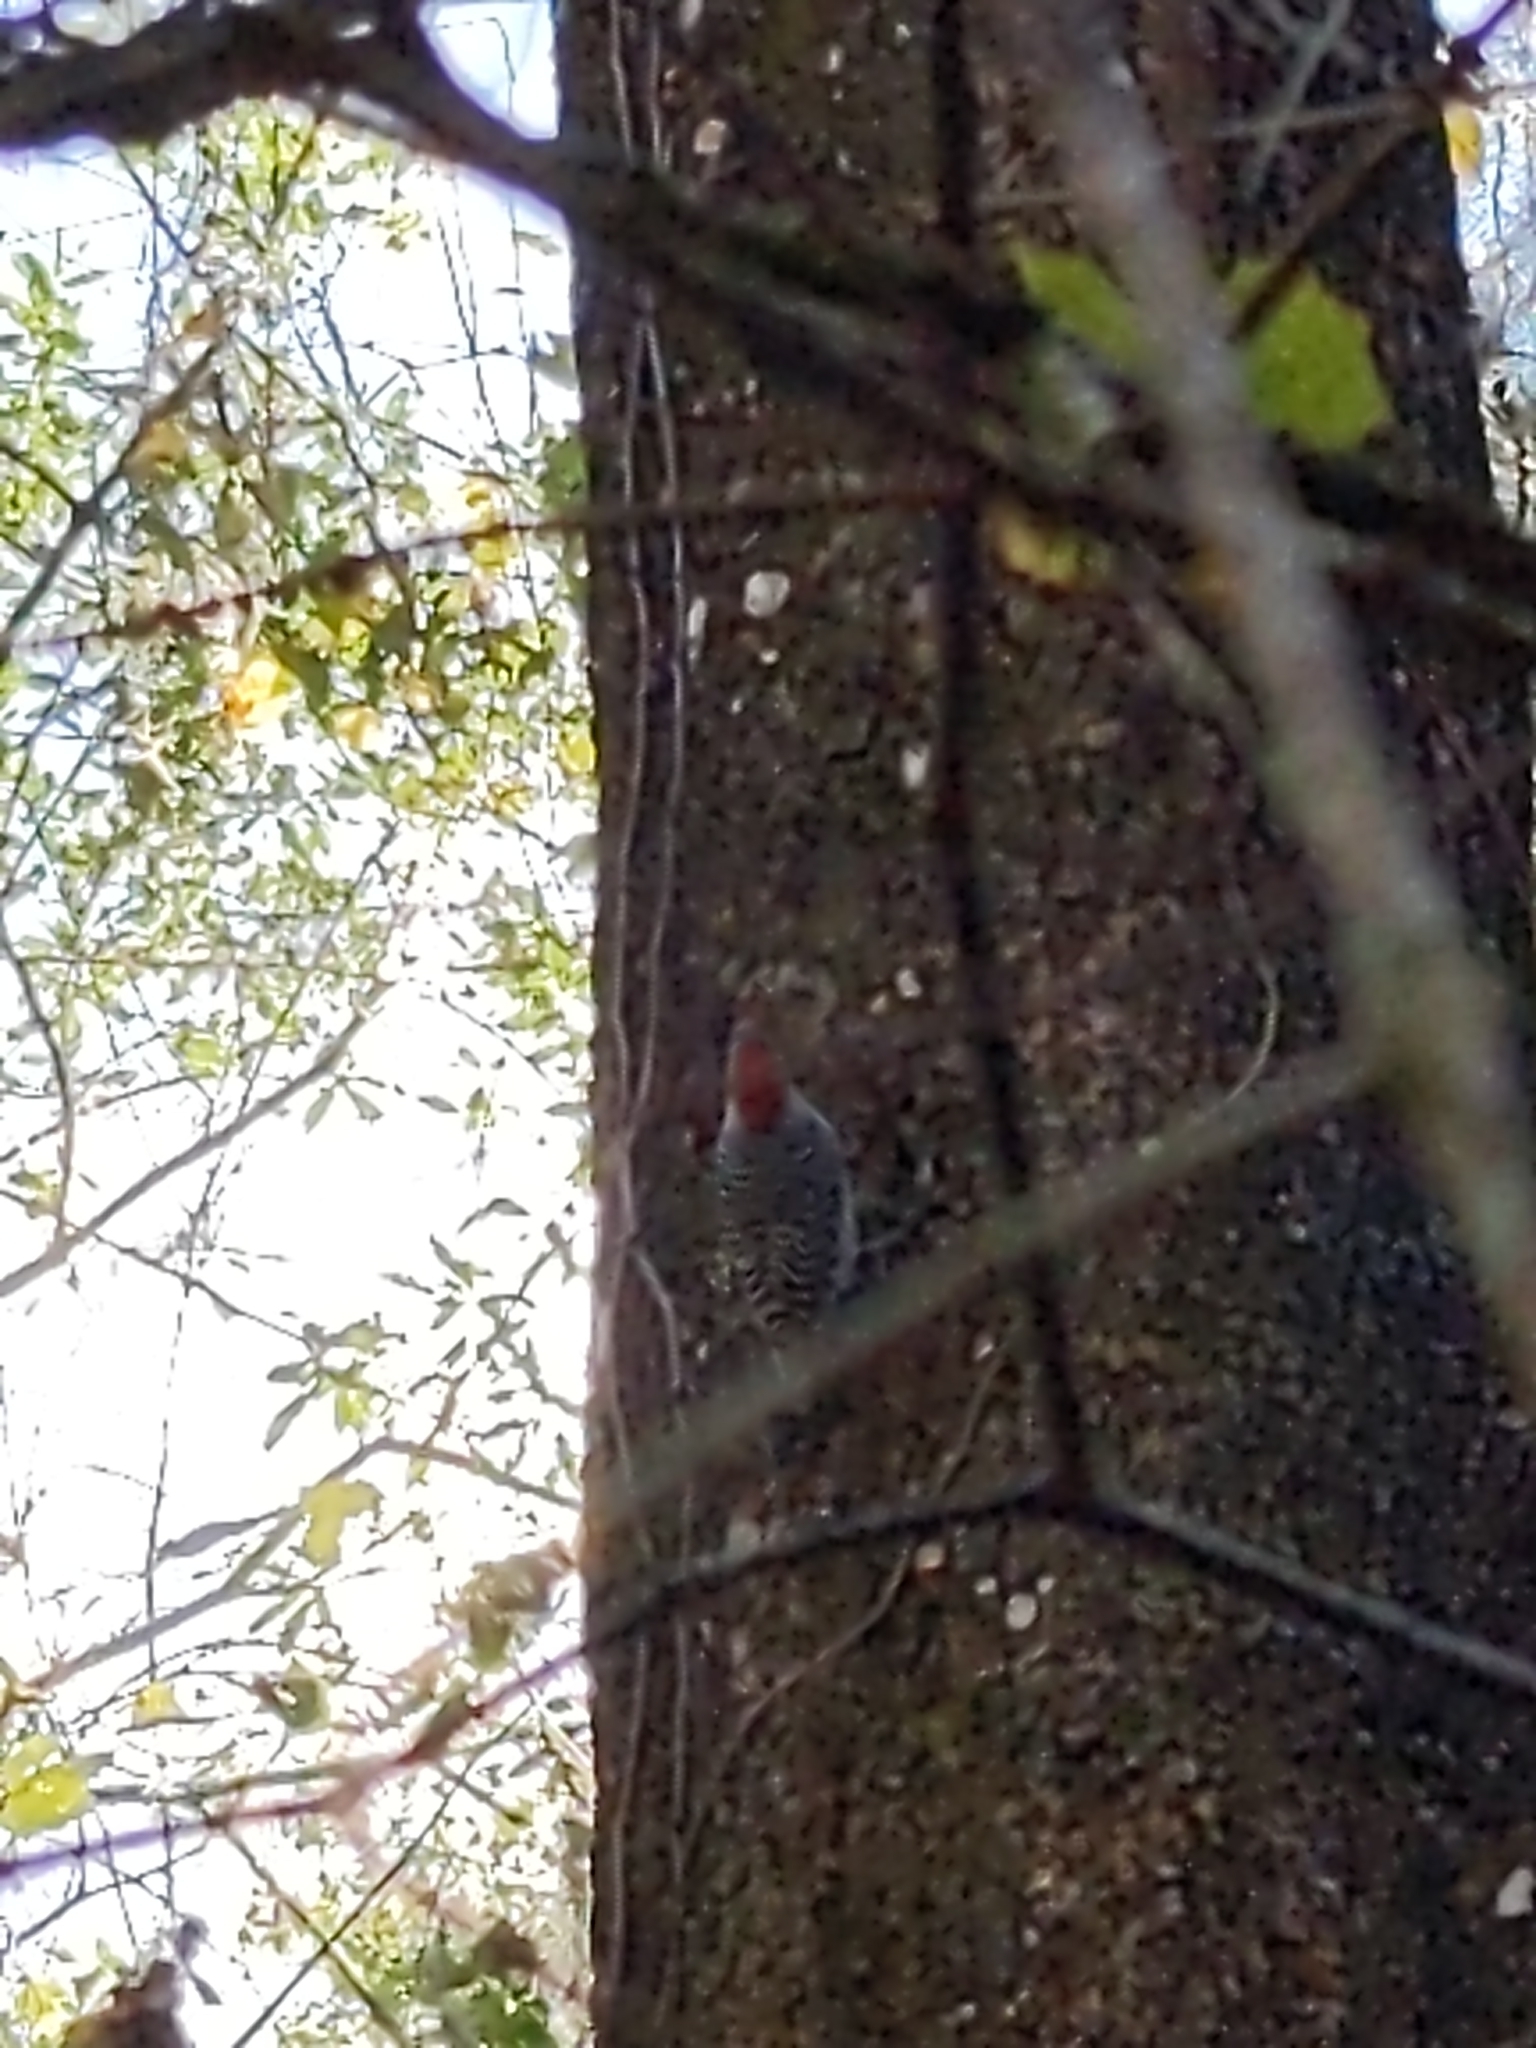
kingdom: Animalia
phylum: Chordata
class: Aves
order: Piciformes
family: Picidae
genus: Melanerpes
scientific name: Melanerpes carolinus
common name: Red-bellied woodpecker
